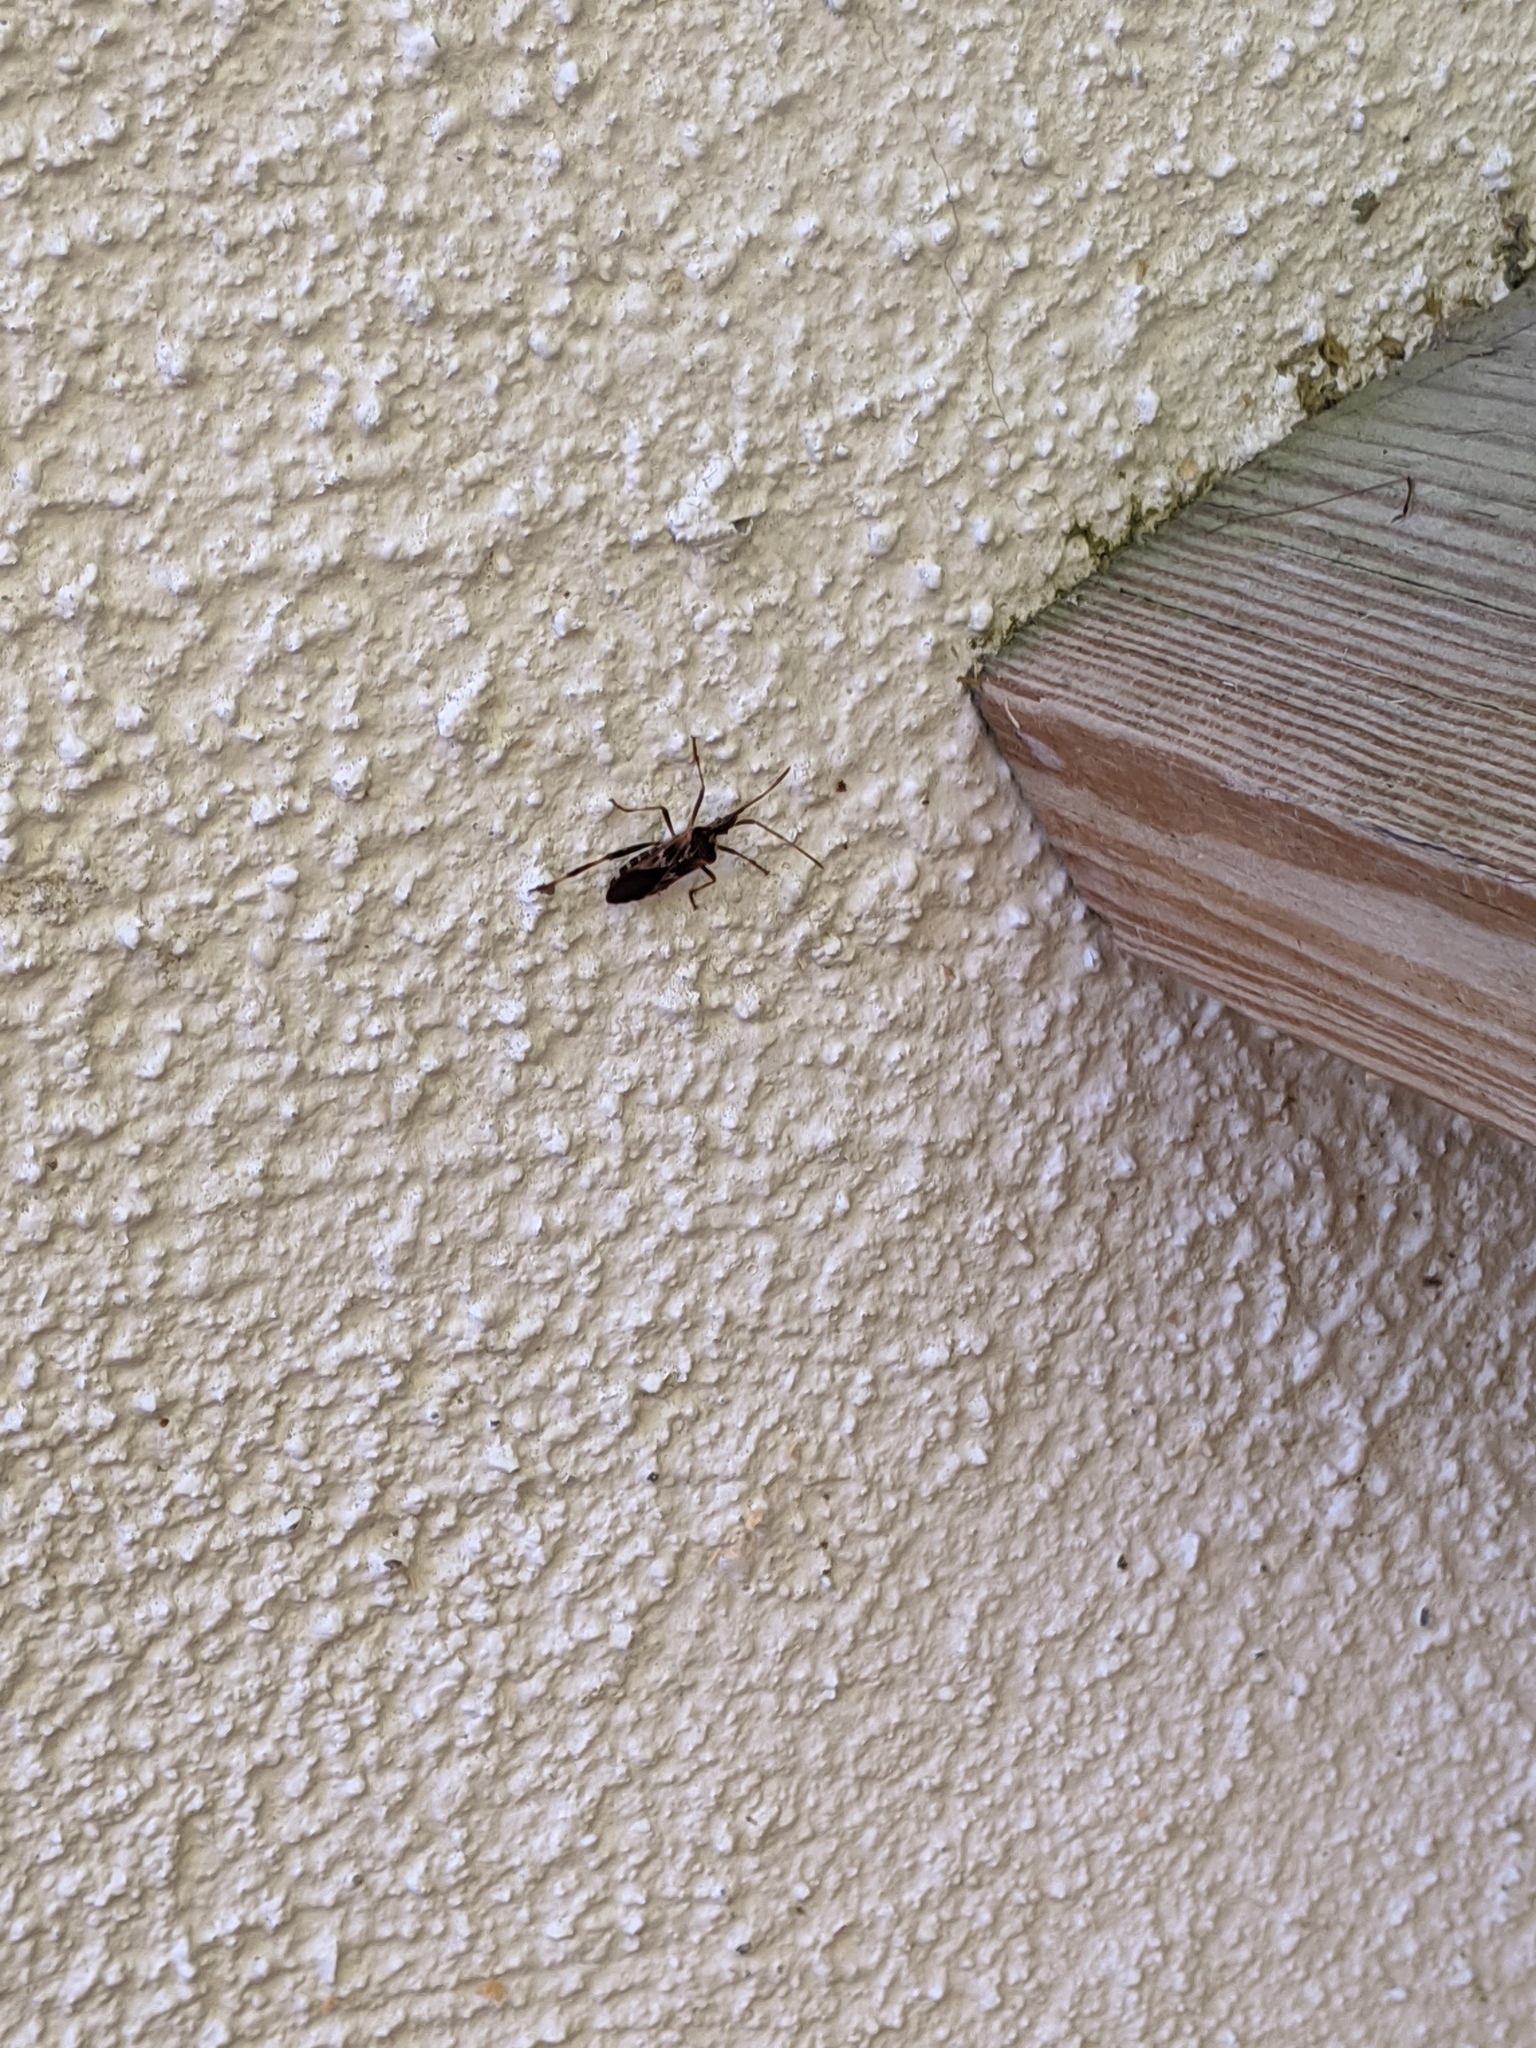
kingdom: Animalia
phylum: Arthropoda
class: Insecta
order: Hemiptera
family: Coreidae
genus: Leptoglossus
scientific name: Leptoglossus occidentalis
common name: Western conifer-seed bug
